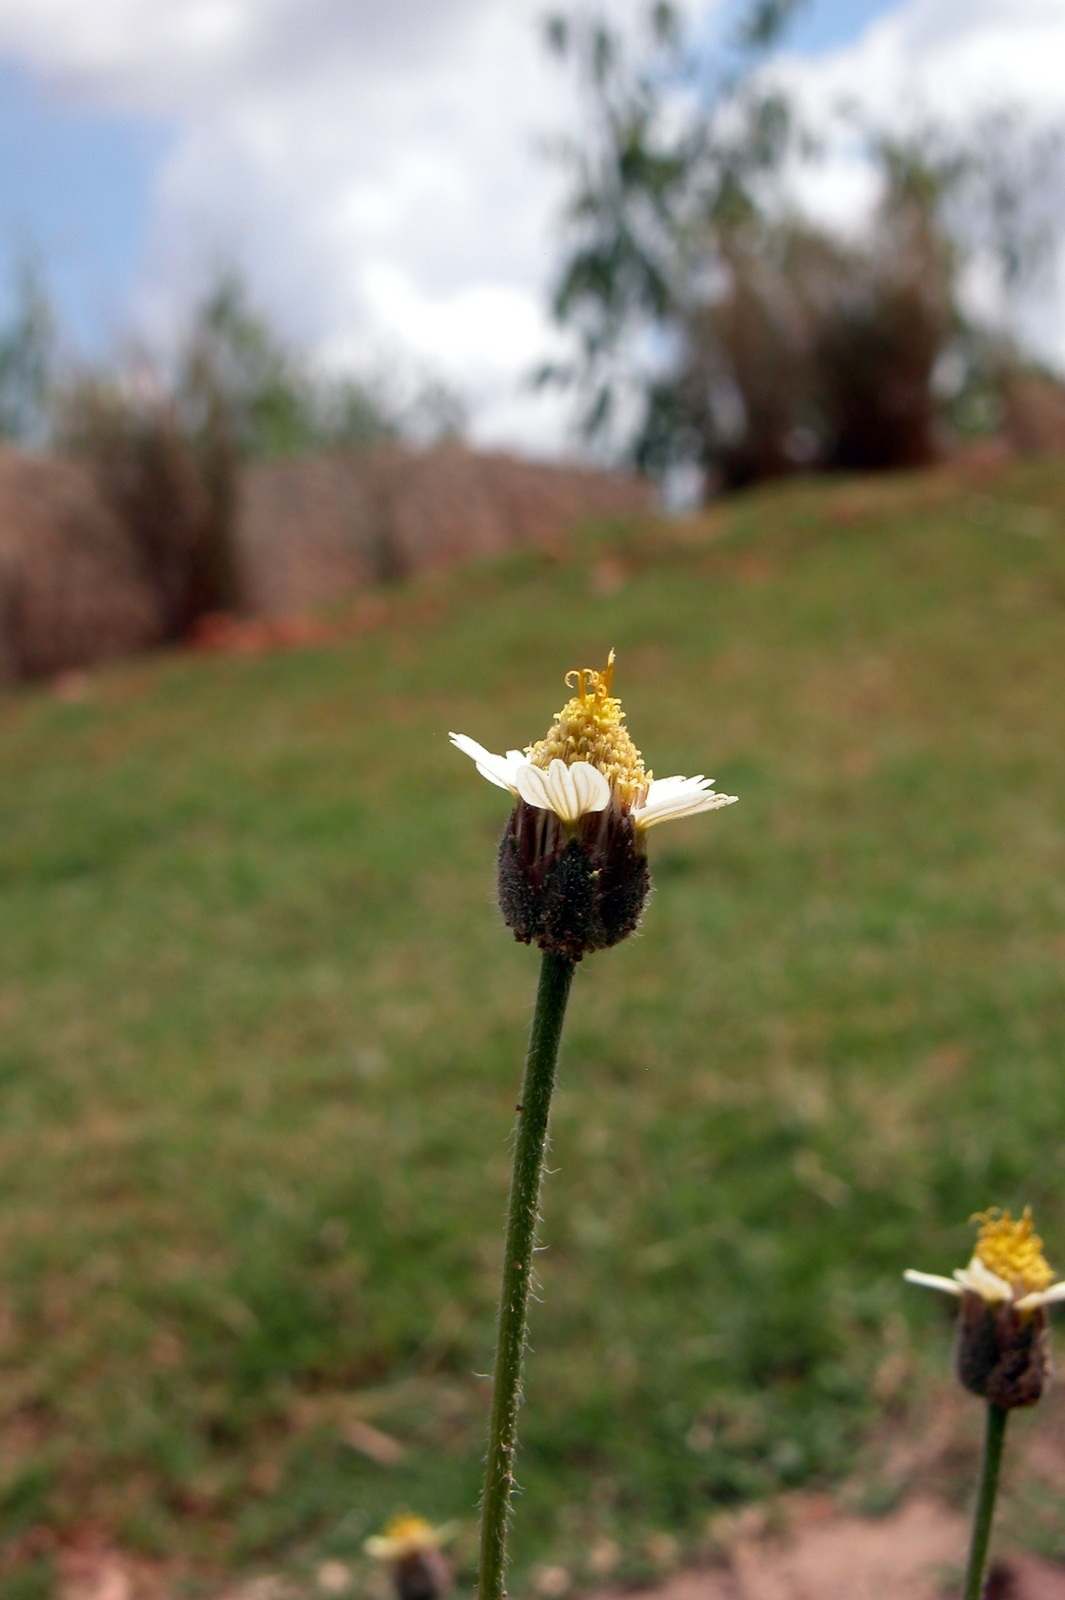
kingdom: Plantae
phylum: Tracheophyta
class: Magnoliopsida
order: Asterales
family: Asteraceae
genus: Tridax
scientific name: Tridax procumbens
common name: Coatbuttons
